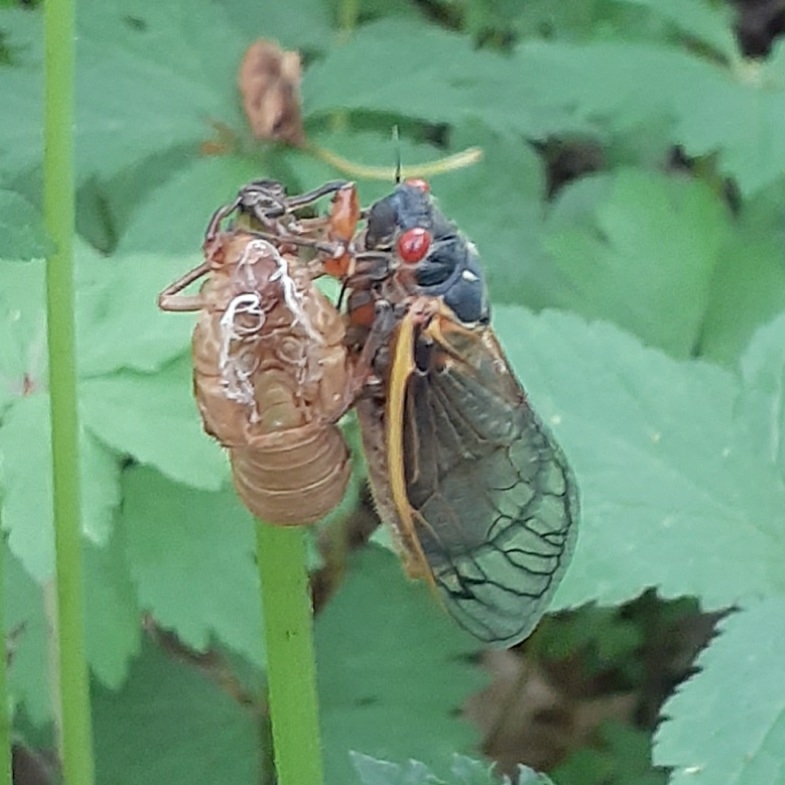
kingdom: Animalia
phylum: Arthropoda
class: Insecta
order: Hemiptera
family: Cicadidae
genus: Magicicada
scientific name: Magicicada septendecim
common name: Periodical cicada
